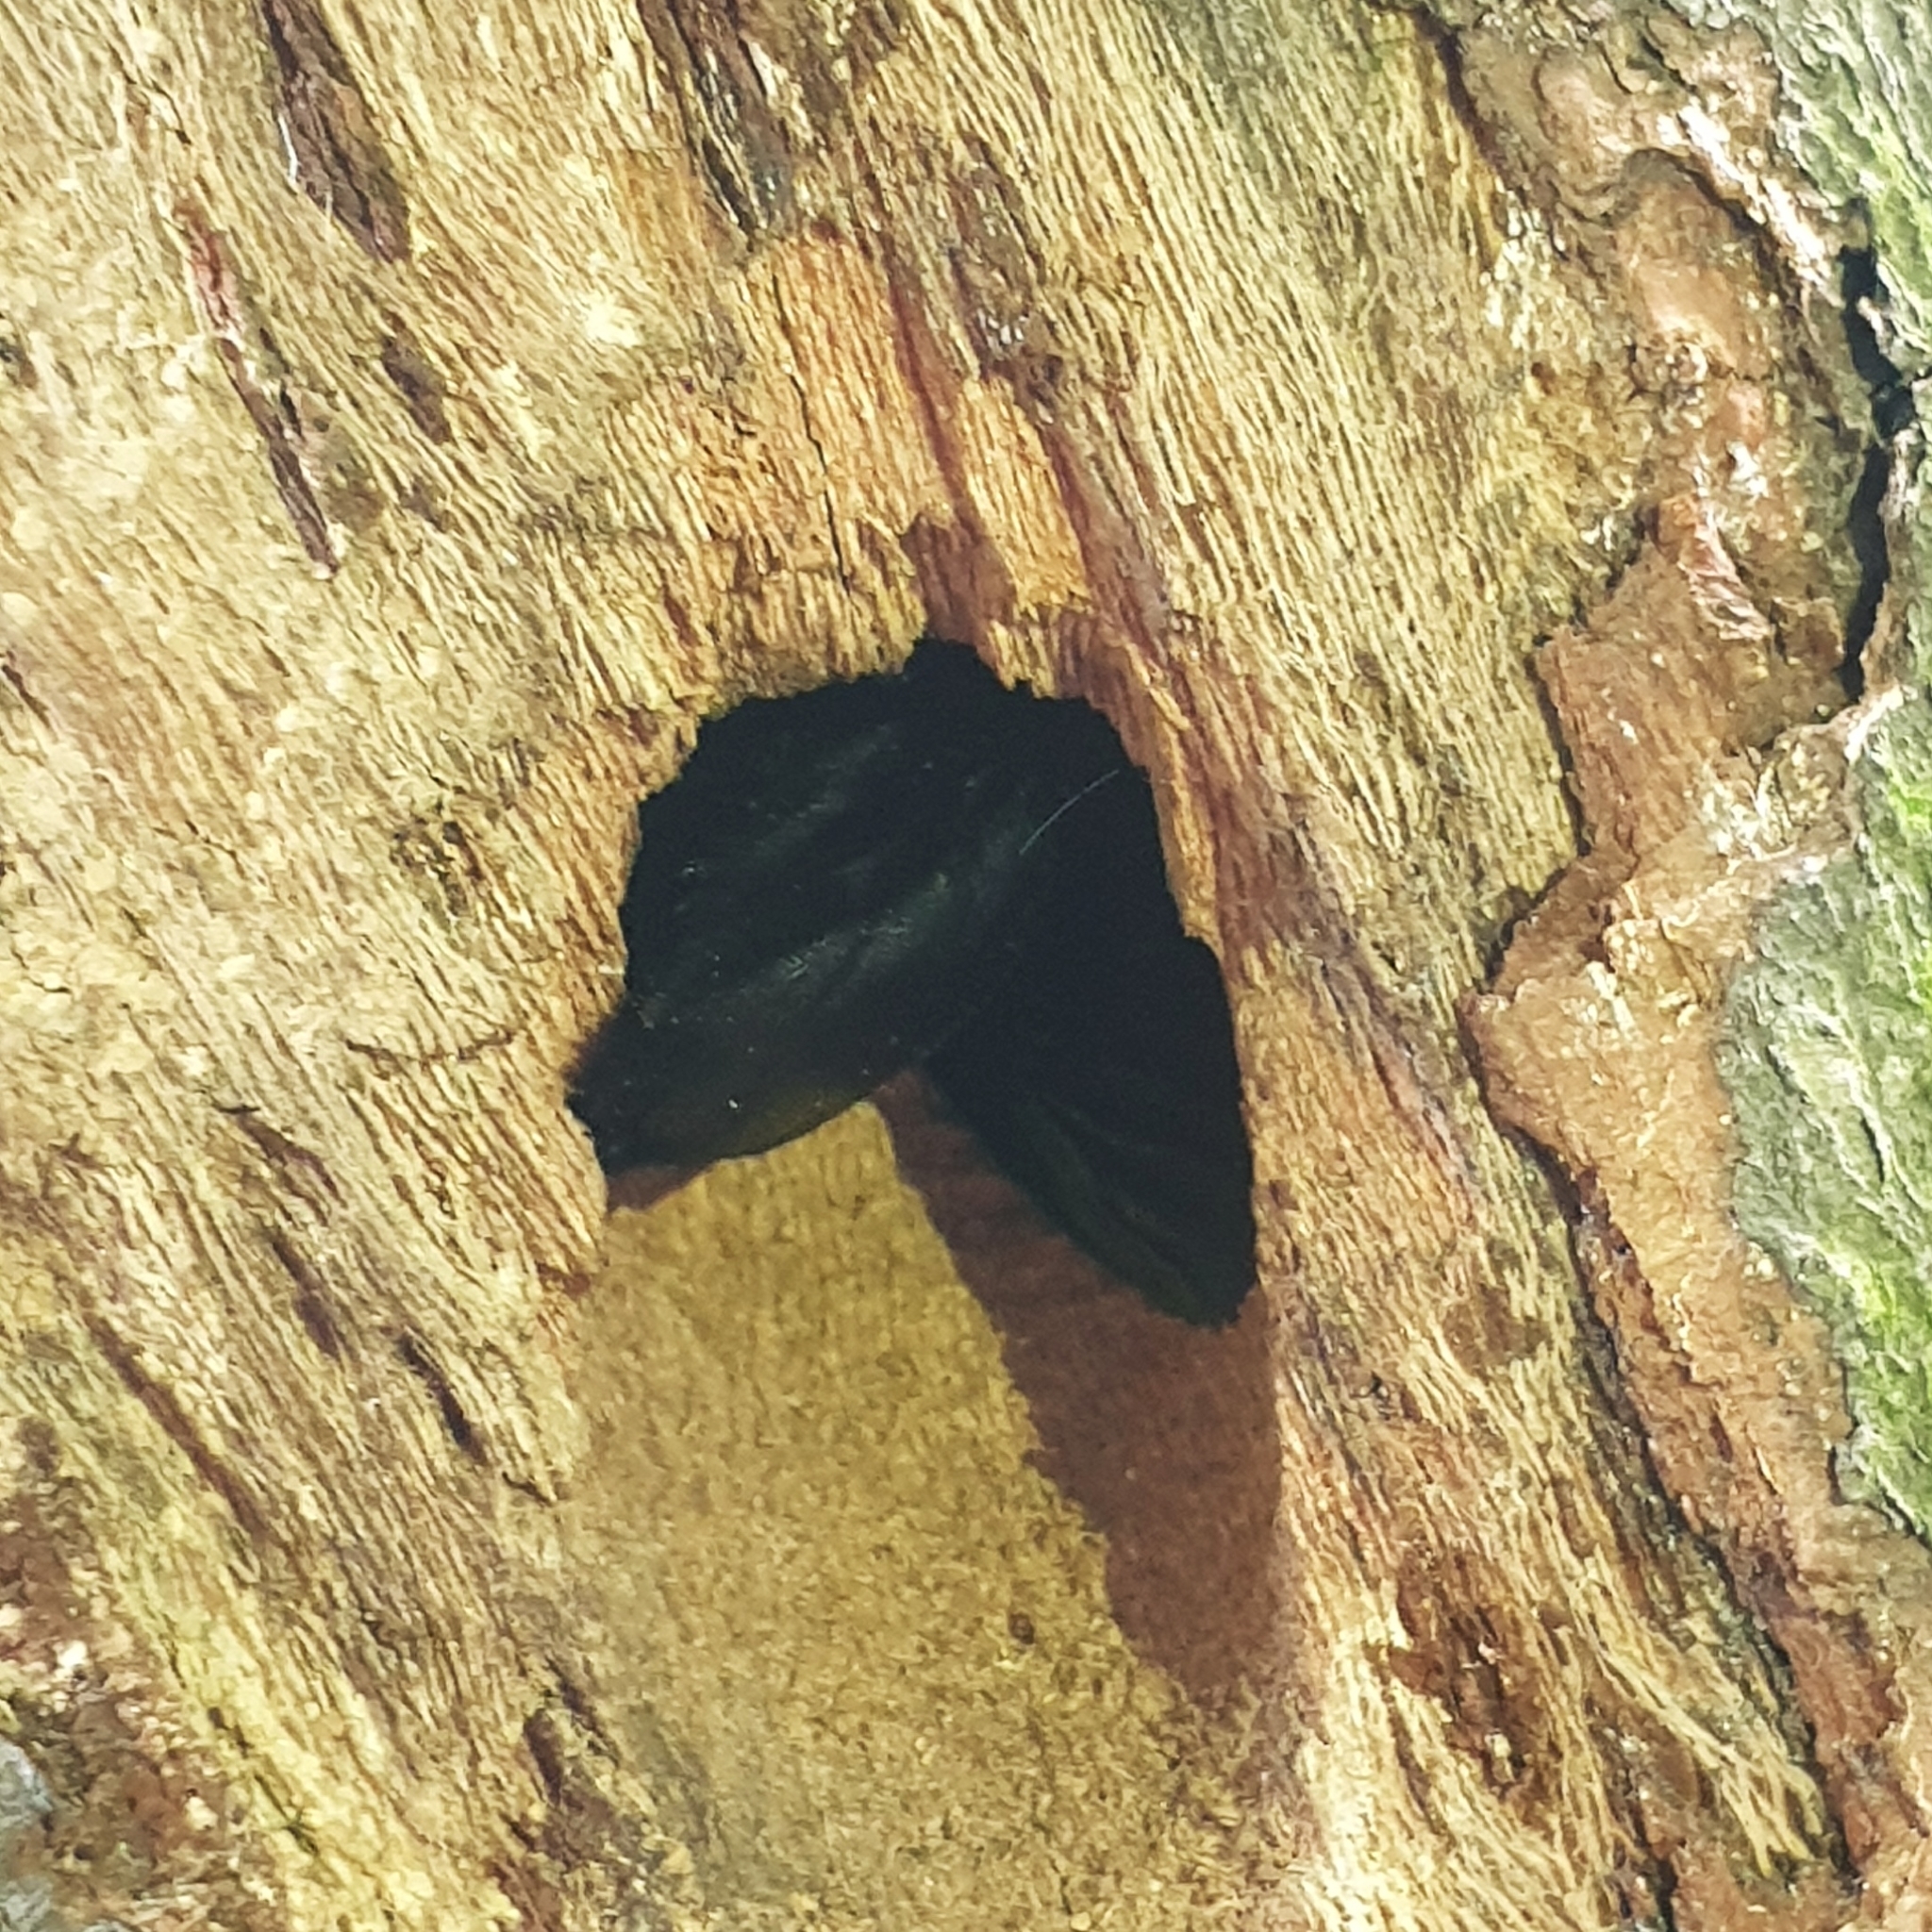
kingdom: Animalia
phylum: Arthropoda
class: Insecta
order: Hymenoptera
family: Apidae
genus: Xylocopa
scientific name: Xylocopa latipes
